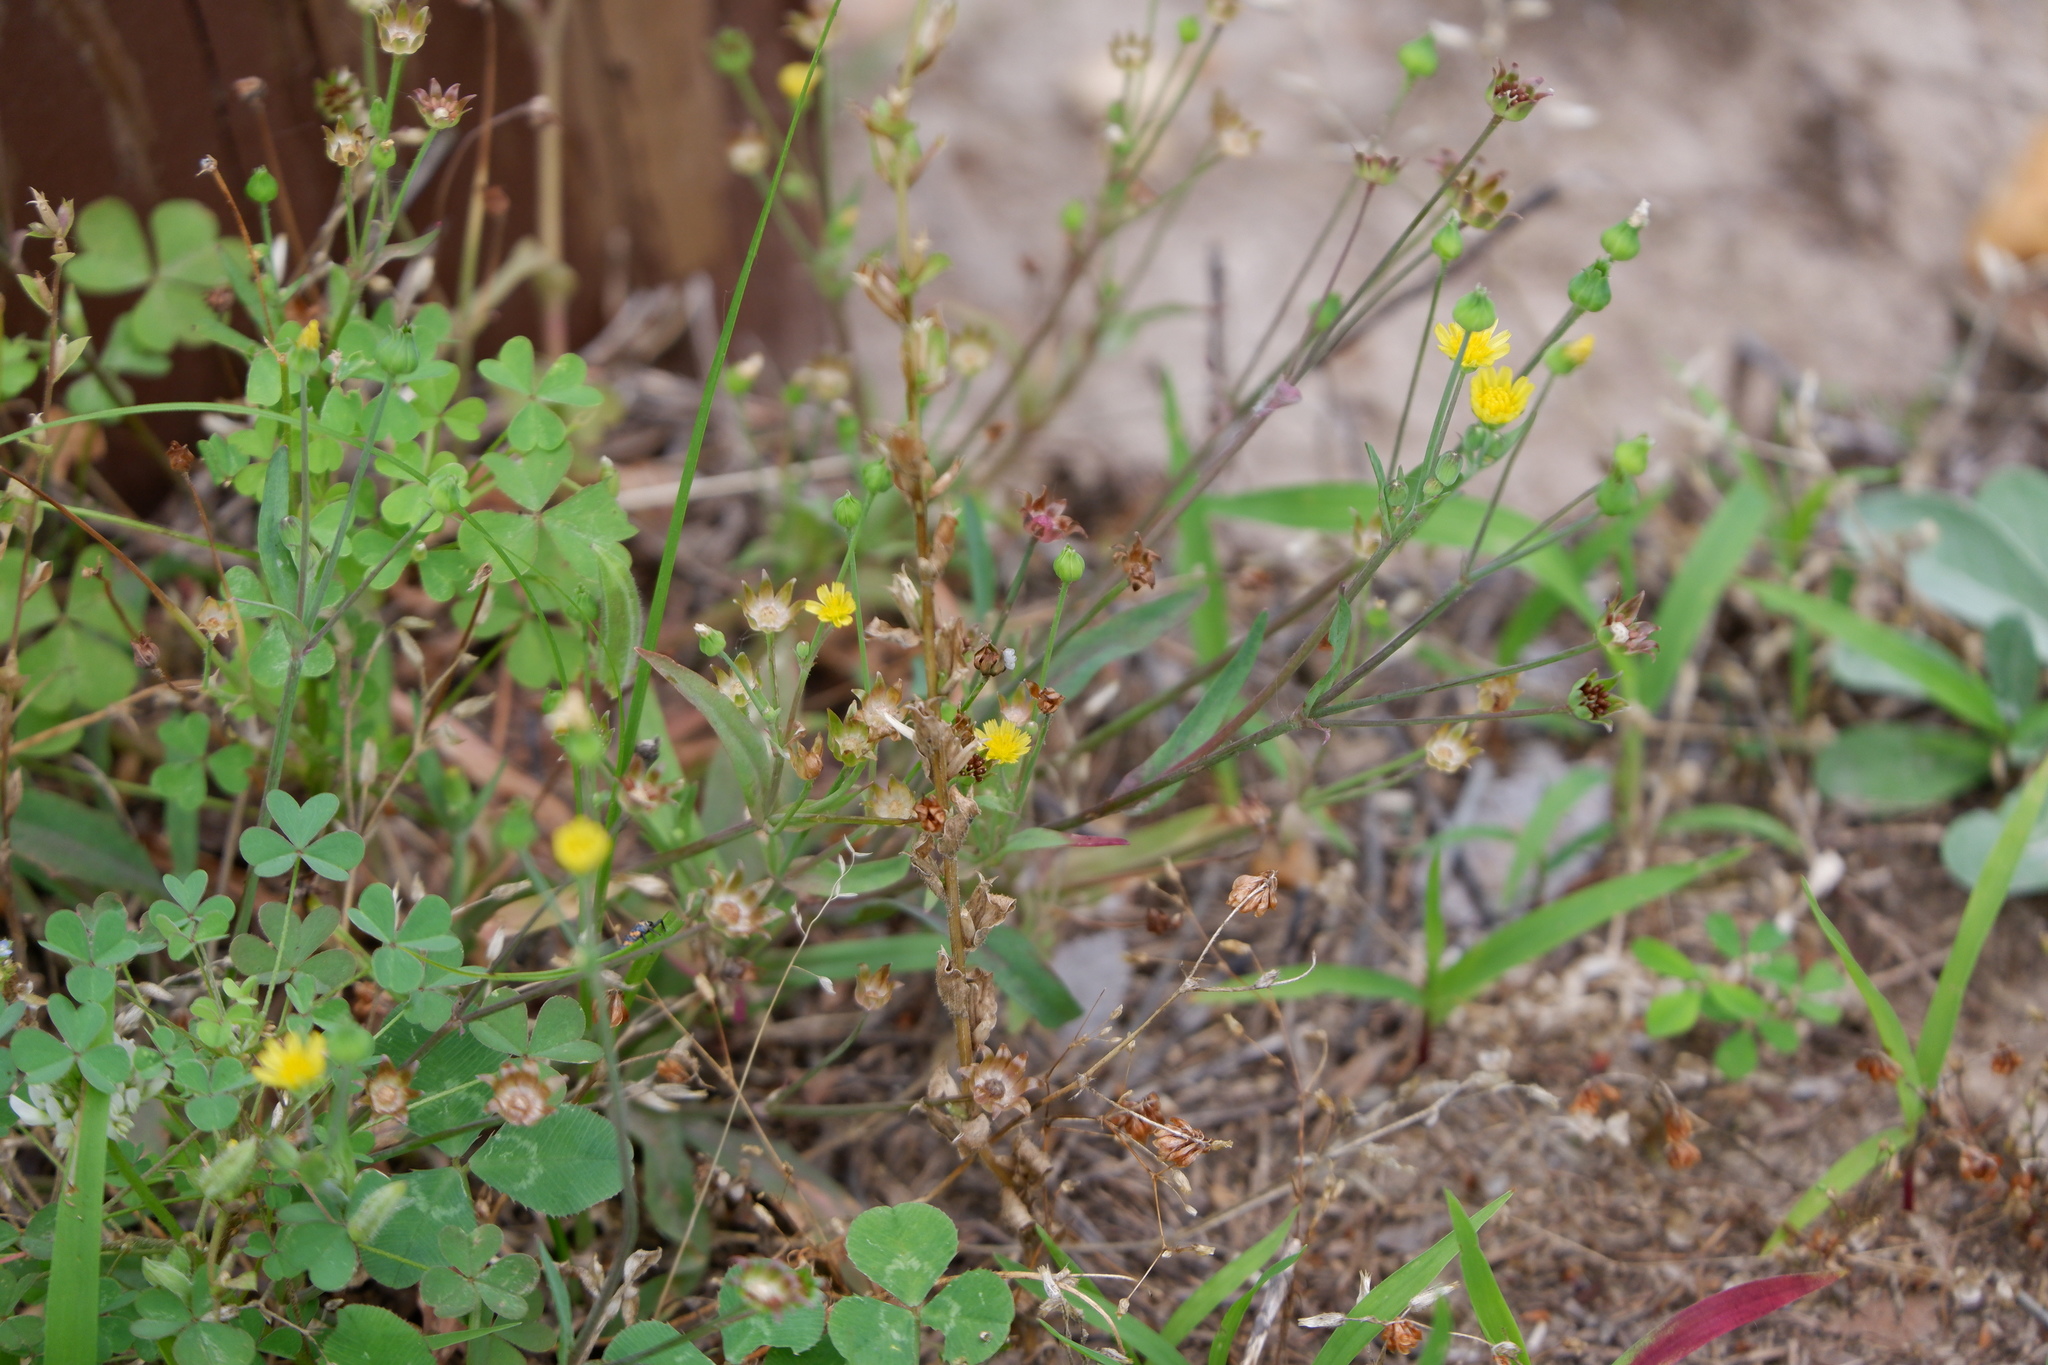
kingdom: Plantae
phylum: Tracheophyta
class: Magnoliopsida
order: Asterales
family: Asteraceae
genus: Krigia
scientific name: Krigia cespitosa
